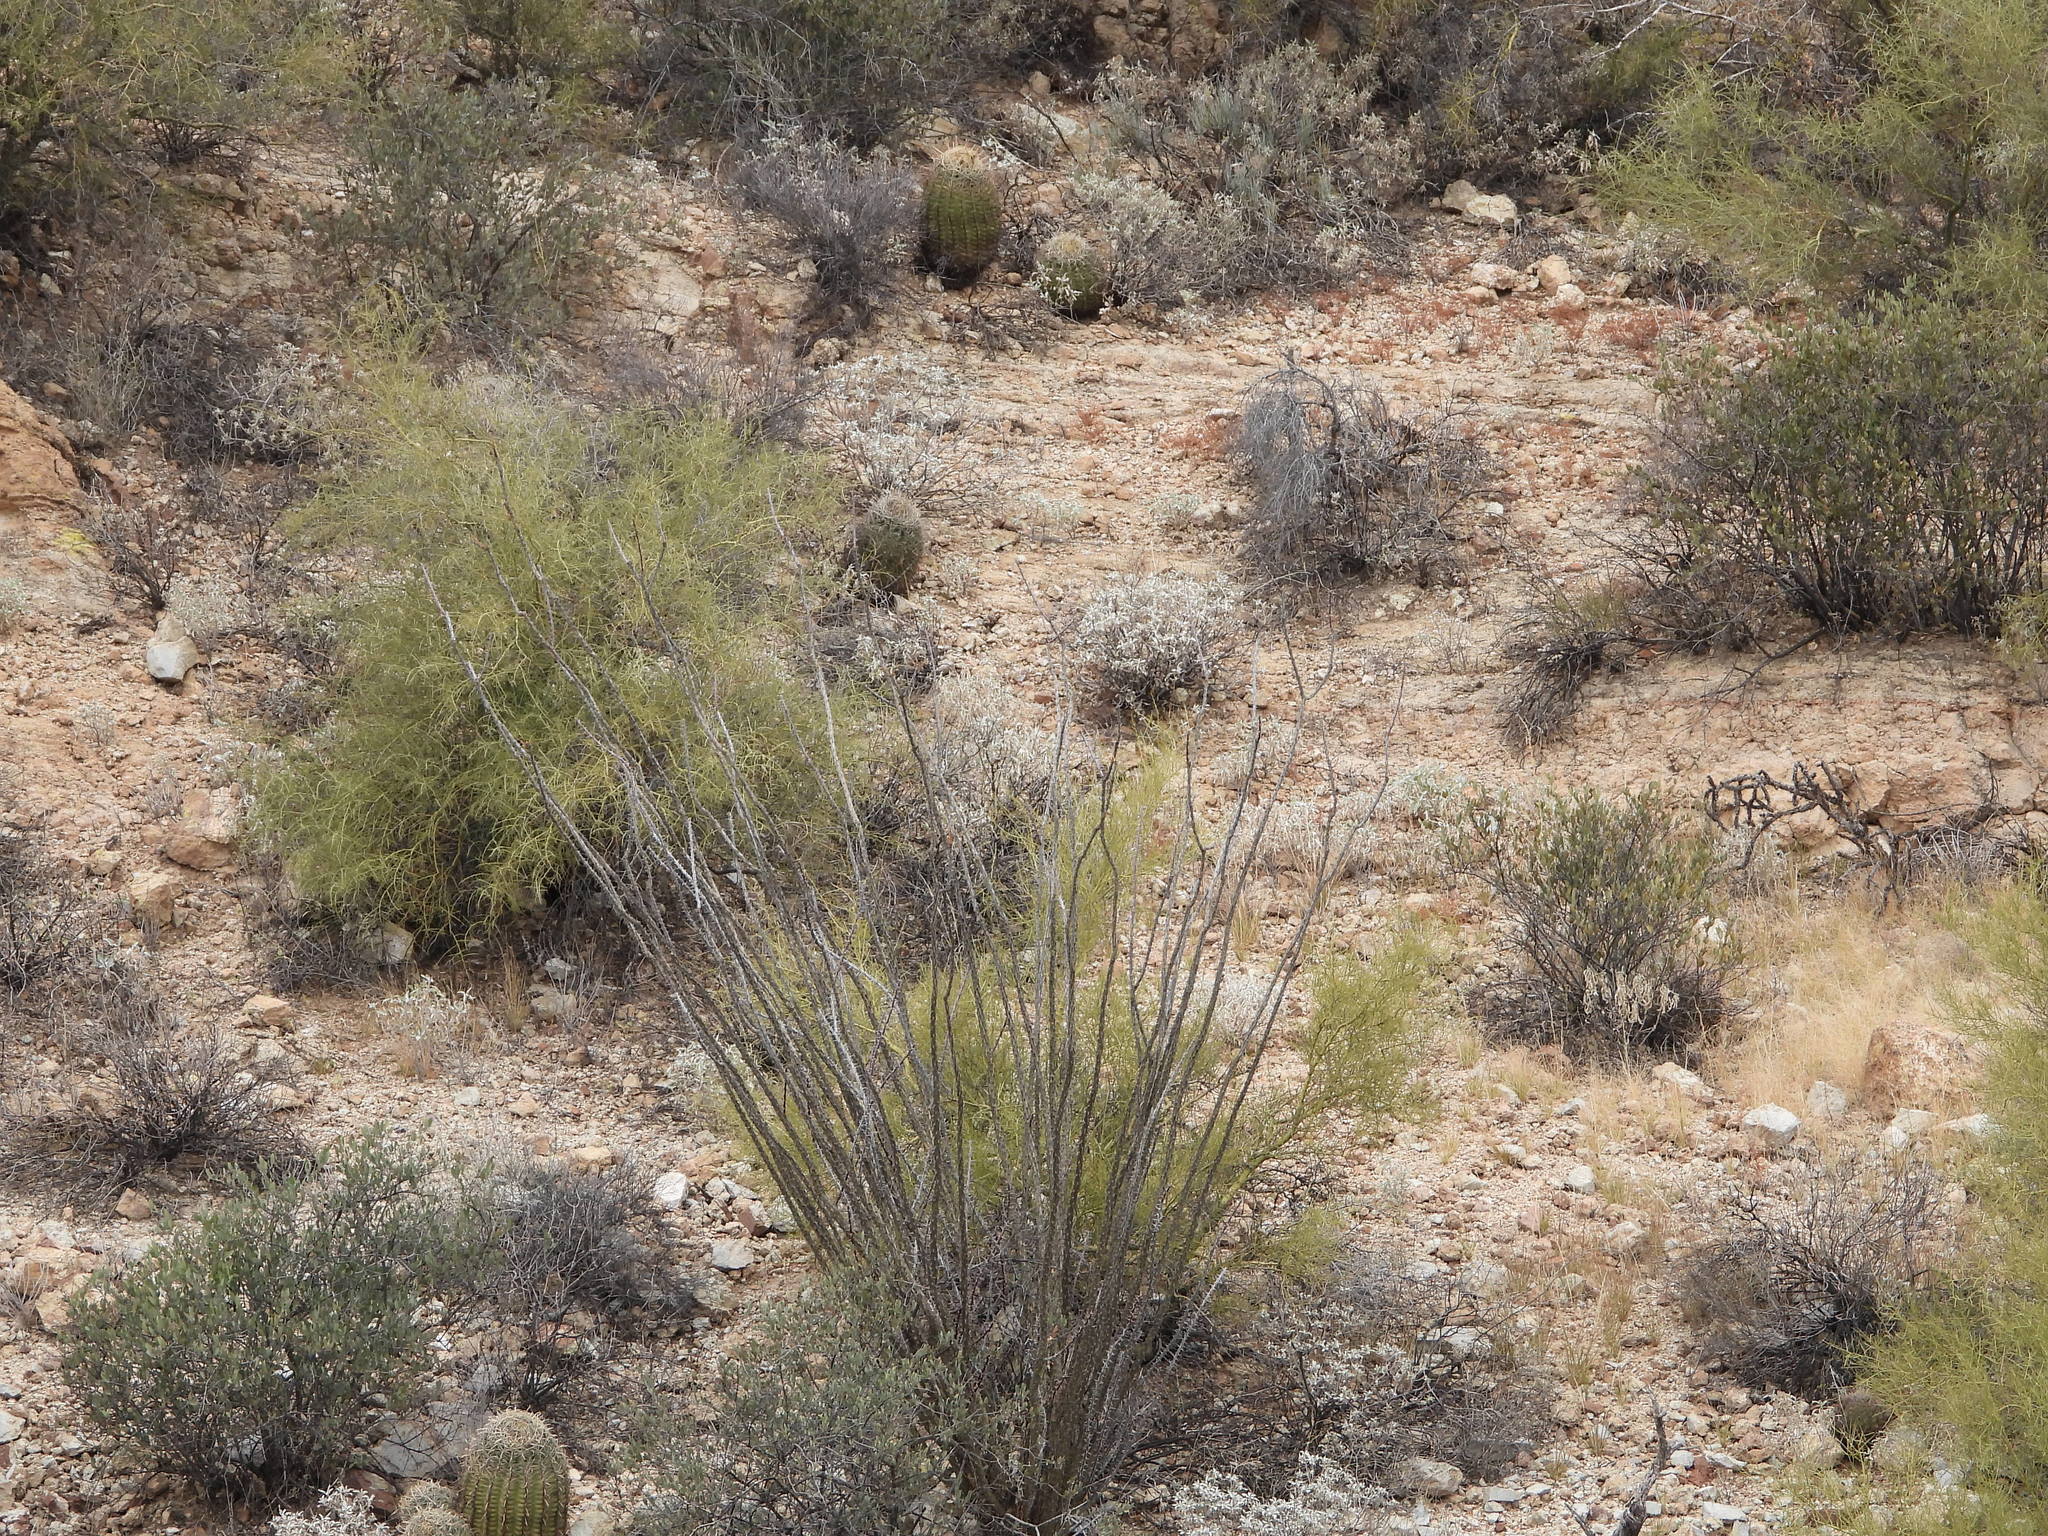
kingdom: Plantae
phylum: Tracheophyta
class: Magnoliopsida
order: Ericales
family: Fouquieriaceae
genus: Fouquieria
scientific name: Fouquieria splendens
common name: Vine-cactus
